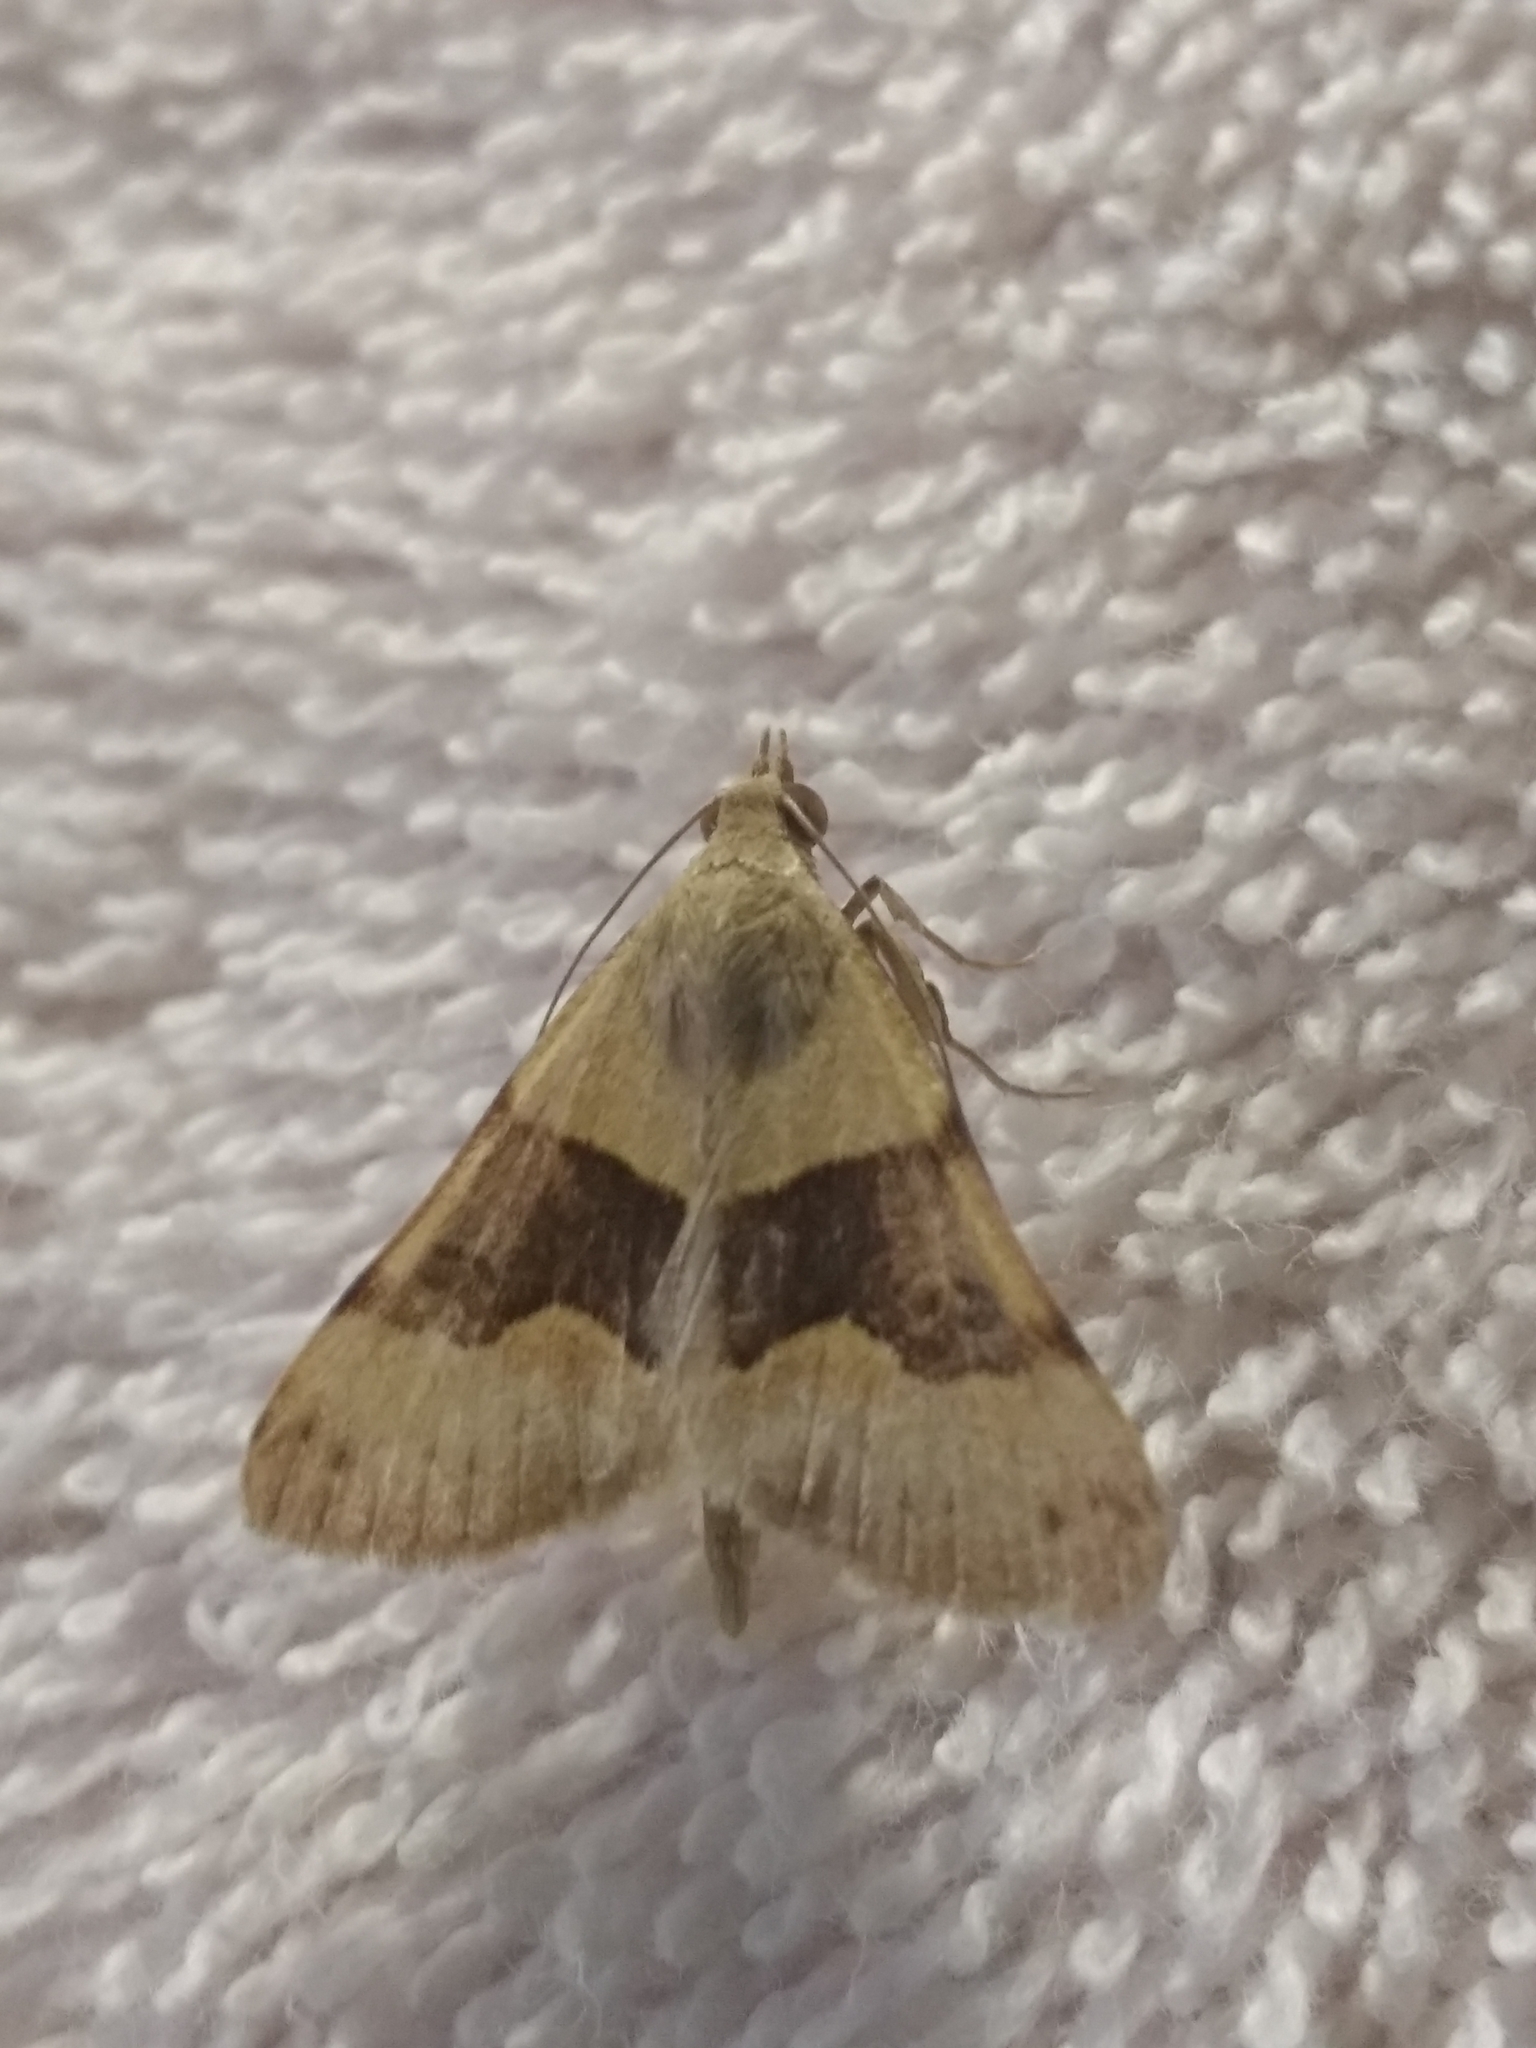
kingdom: Animalia
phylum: Arthropoda
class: Insecta
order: Lepidoptera
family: Erebidae
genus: Hemeroplanis
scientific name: Hemeroplanis incusalis
